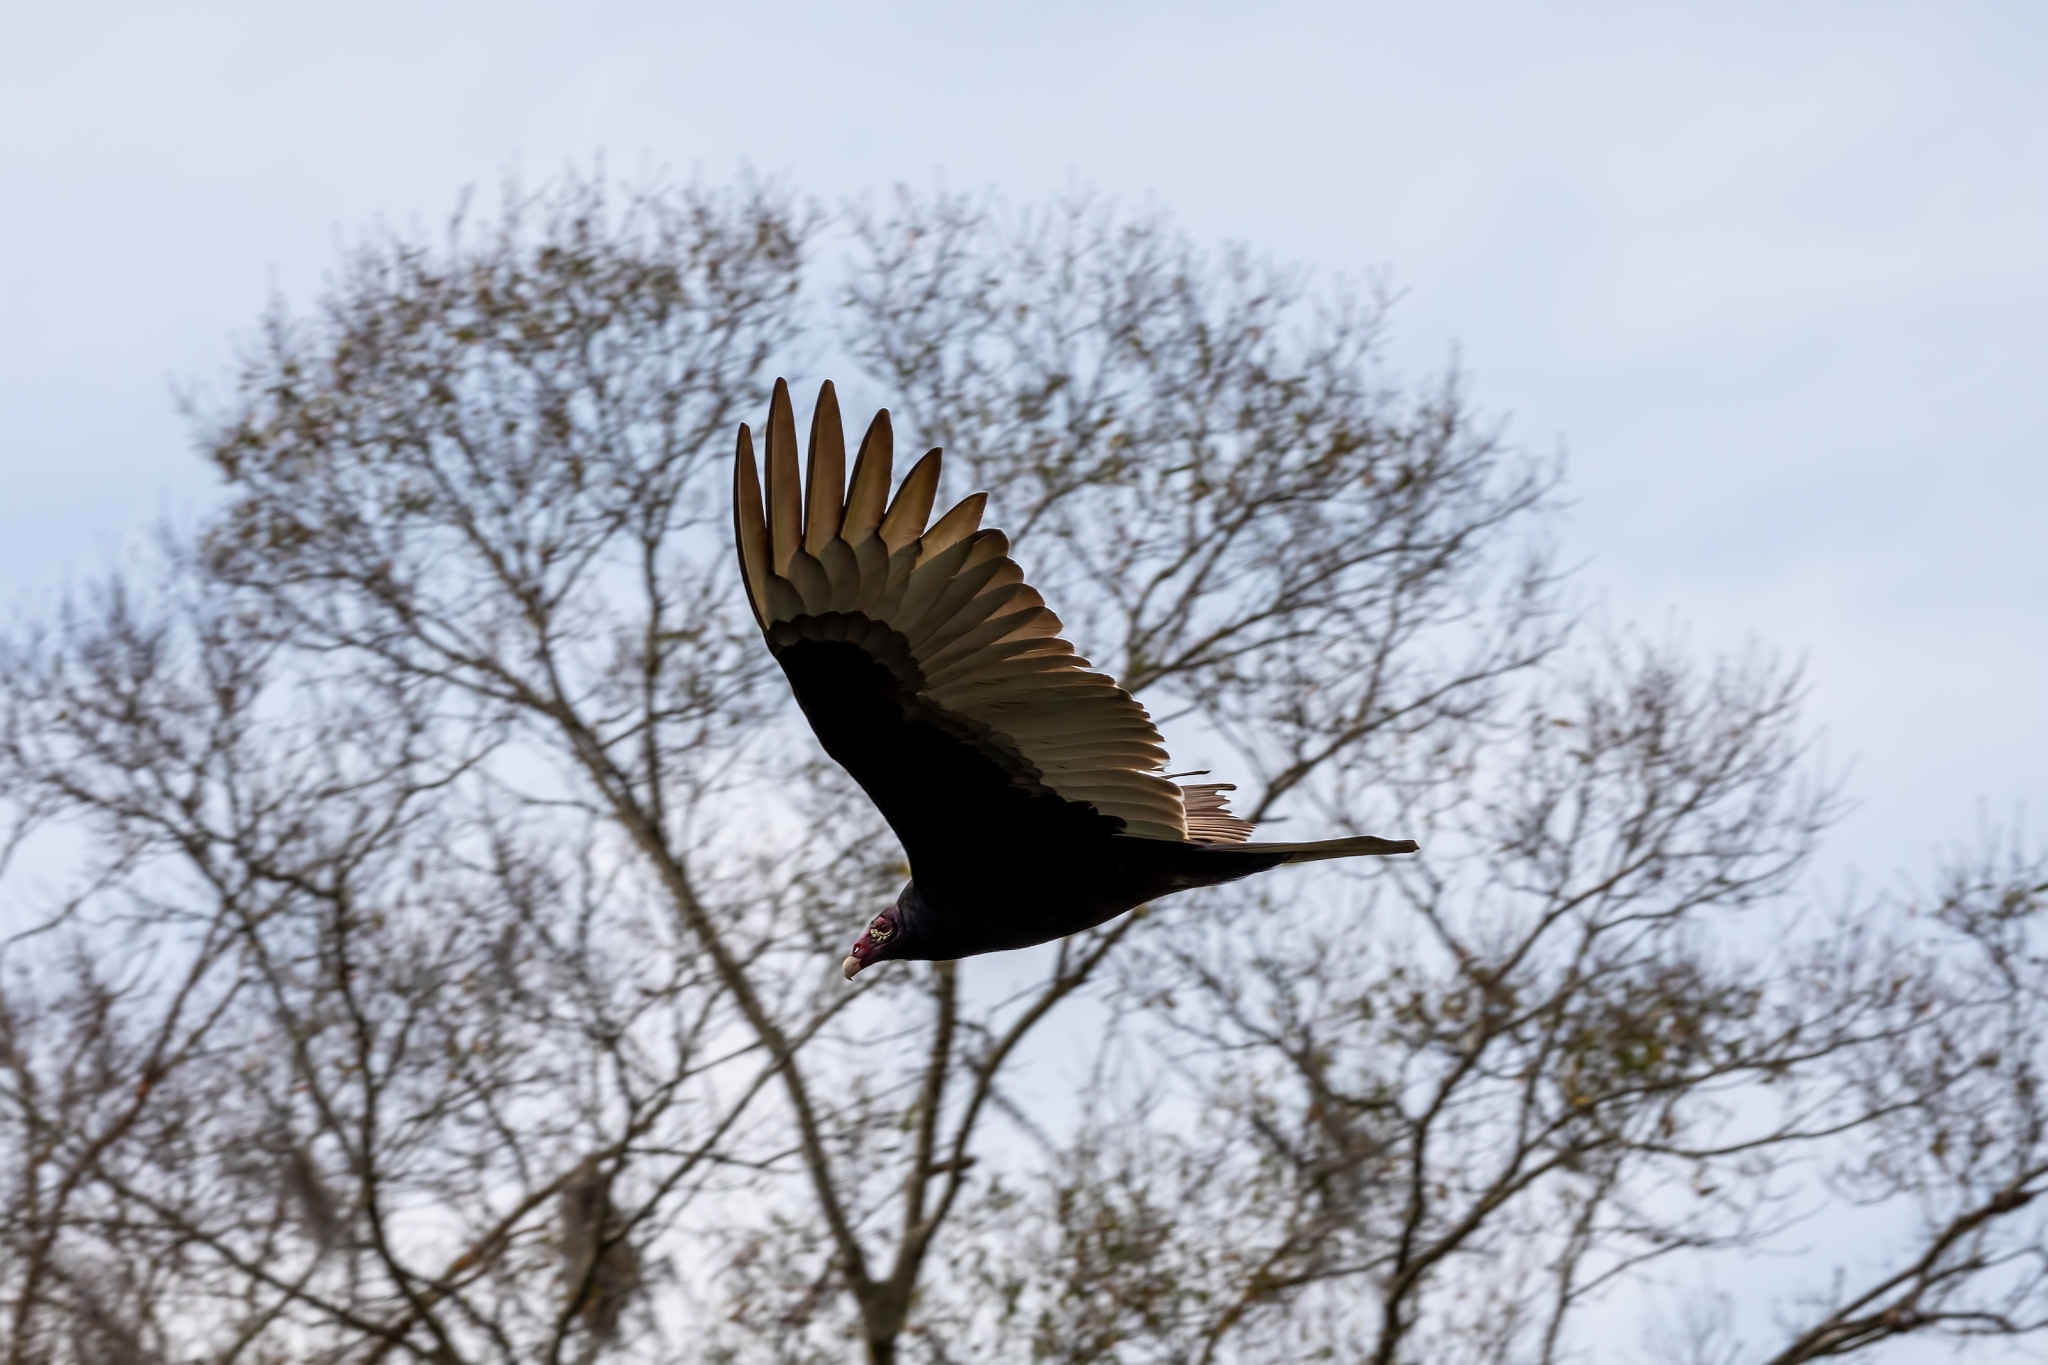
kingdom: Animalia
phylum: Chordata
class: Aves
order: Accipitriformes
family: Cathartidae
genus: Cathartes
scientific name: Cathartes aura
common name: Turkey vulture
